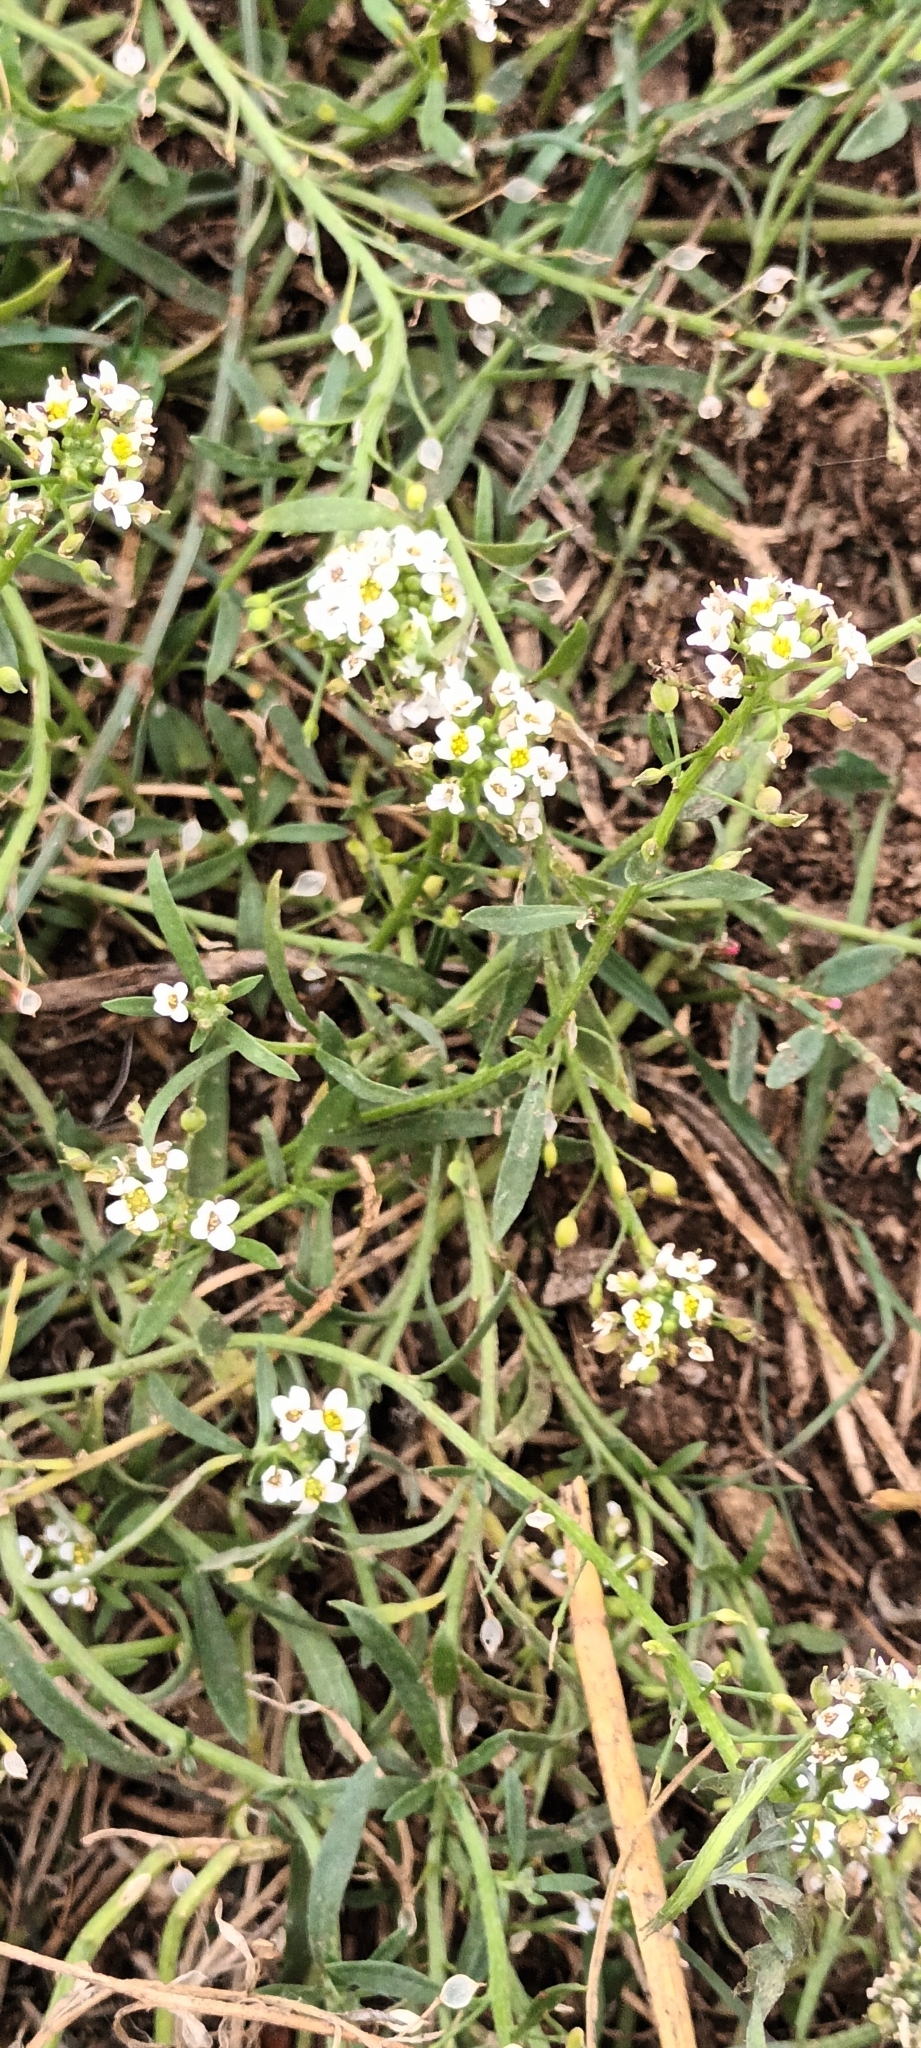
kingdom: Plantae
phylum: Tracheophyta
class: Magnoliopsida
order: Brassicales
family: Brassicaceae
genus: Lobularia
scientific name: Lobularia maritima
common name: Sweet alison
